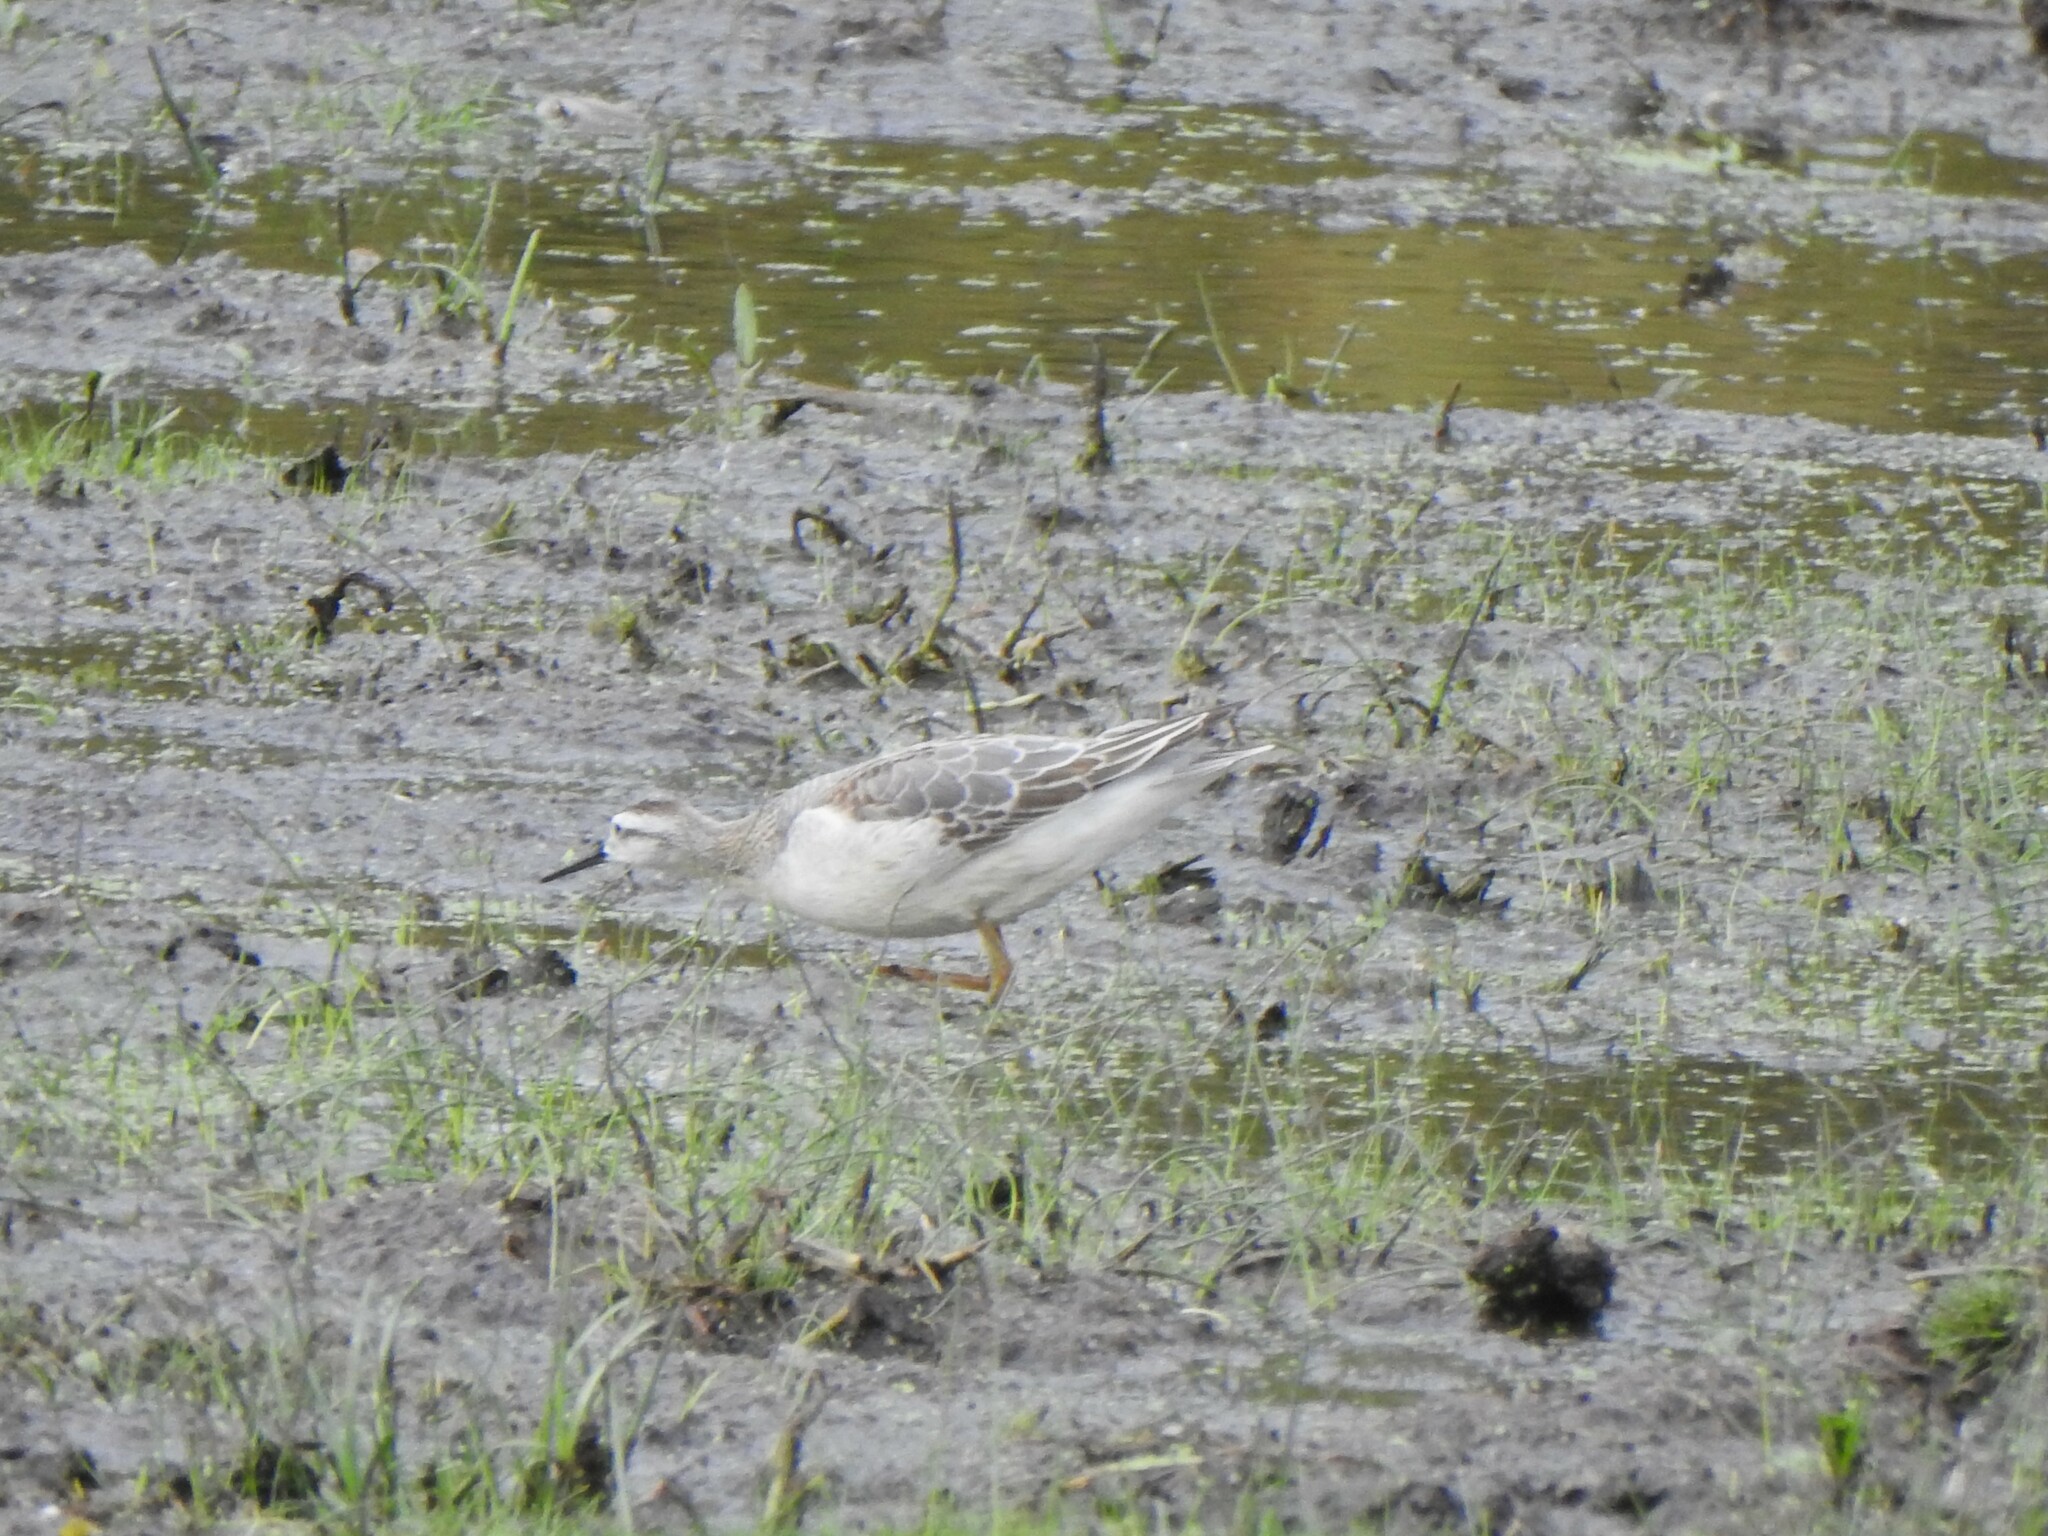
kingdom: Animalia
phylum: Chordata
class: Aves
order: Charadriiformes
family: Scolopacidae
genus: Phalaropus
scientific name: Phalaropus tricolor
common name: Wilson's phalarope
